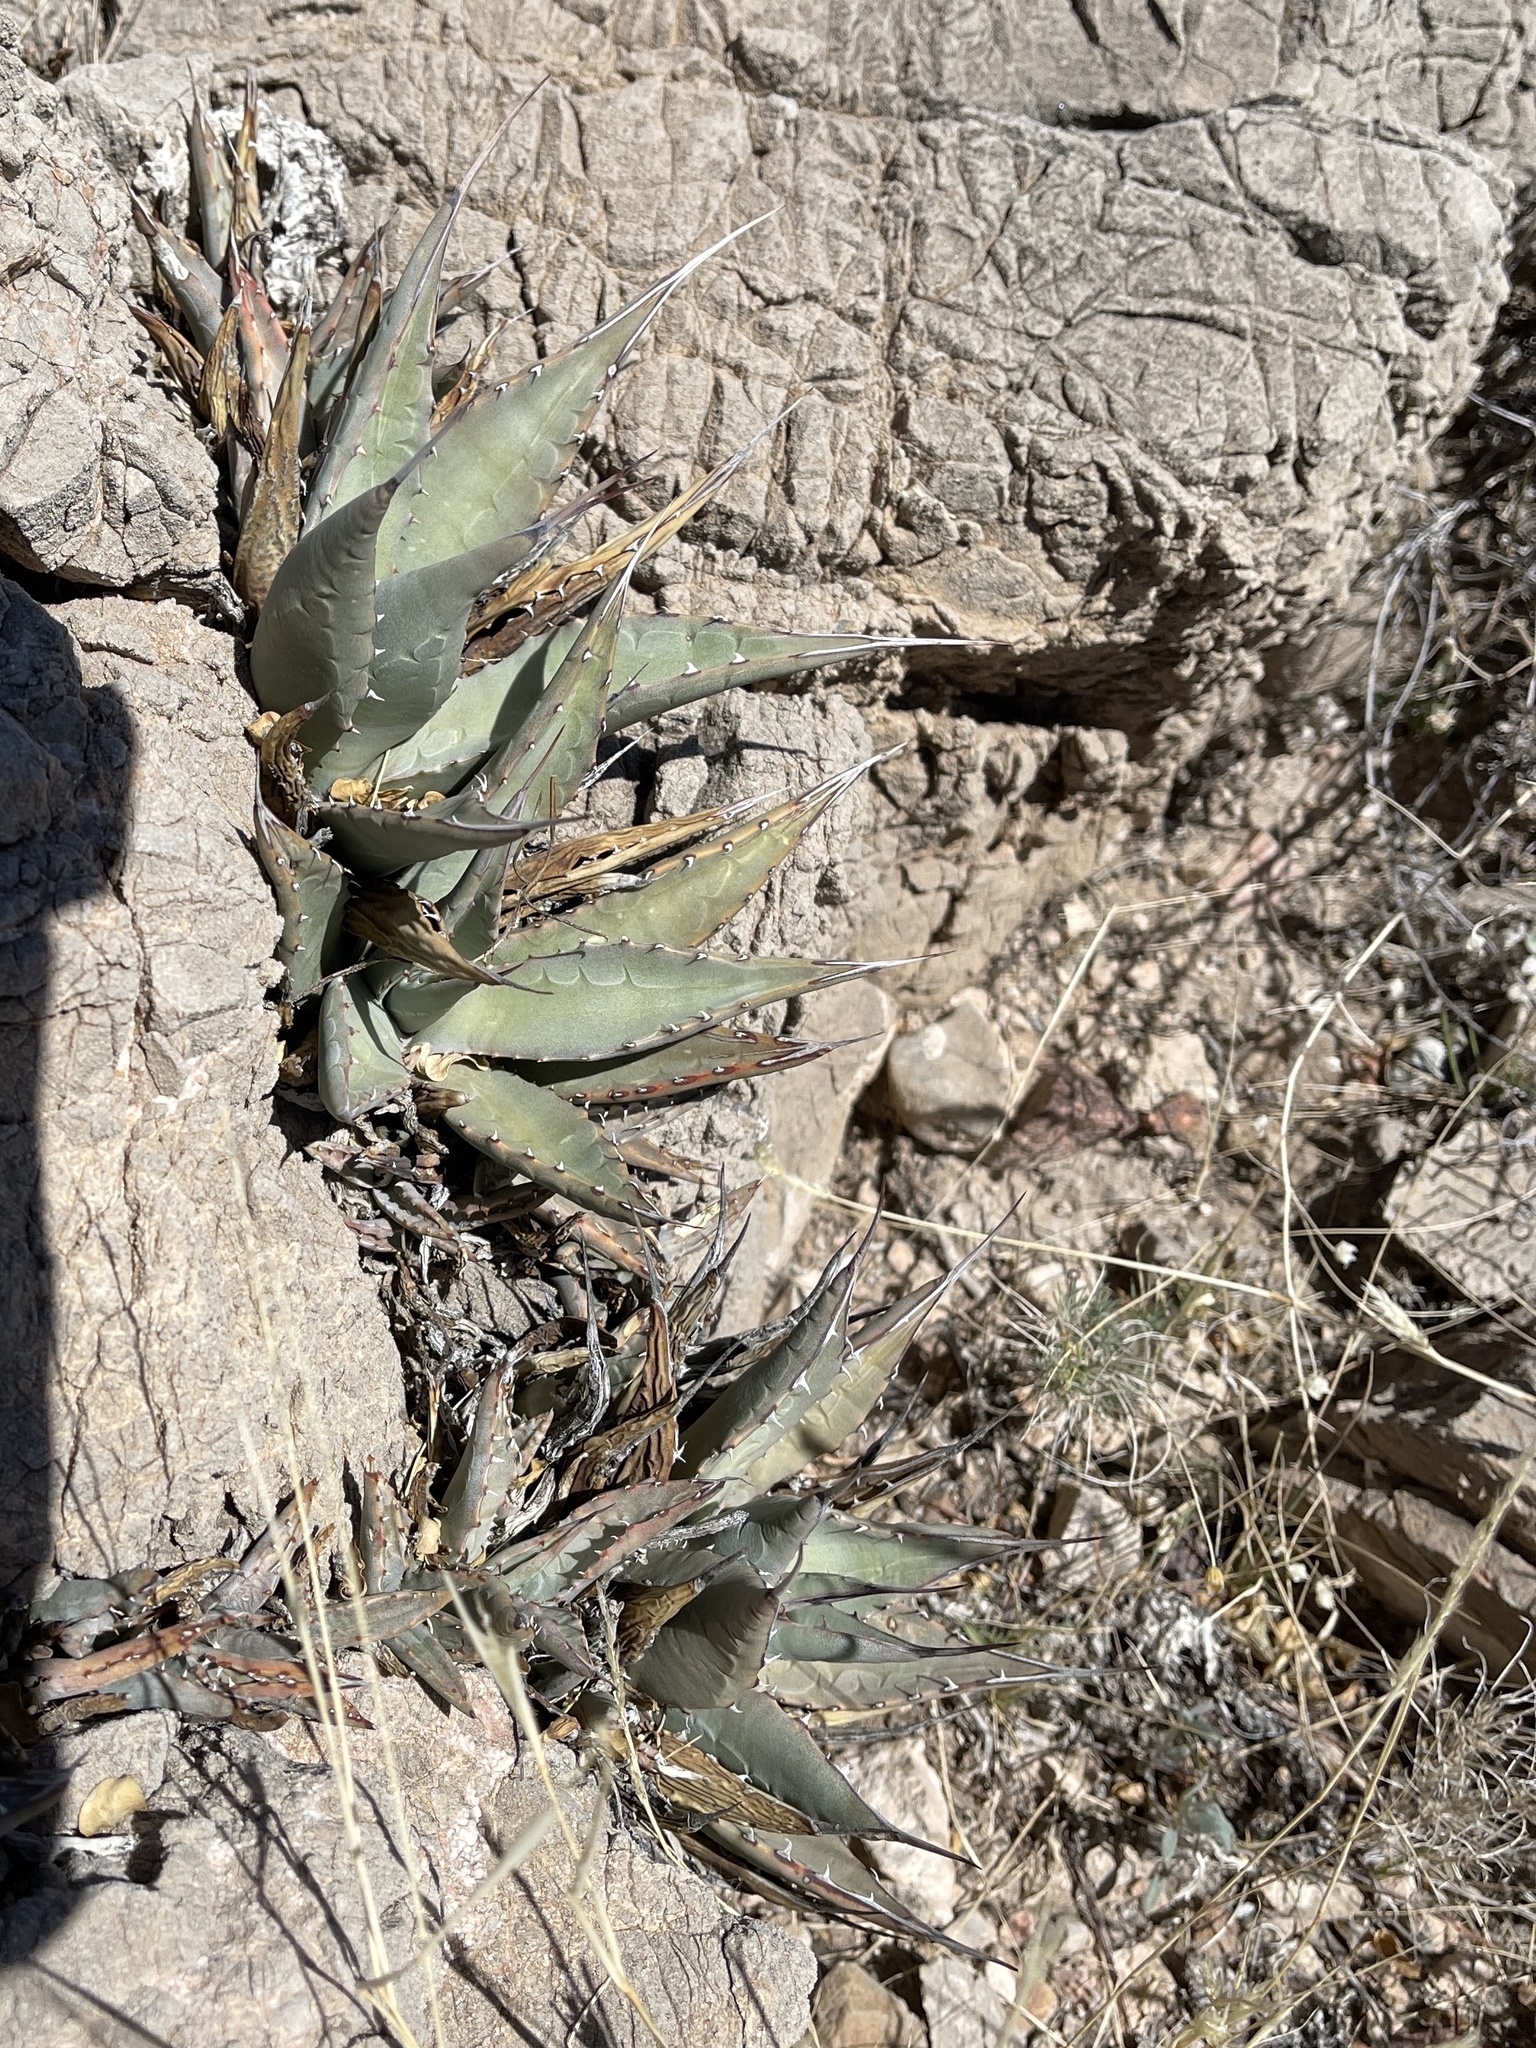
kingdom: Plantae
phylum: Tracheophyta
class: Liliopsida
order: Asparagales
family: Asparagaceae
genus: Agave
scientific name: Agave parryi
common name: Parry's agave
